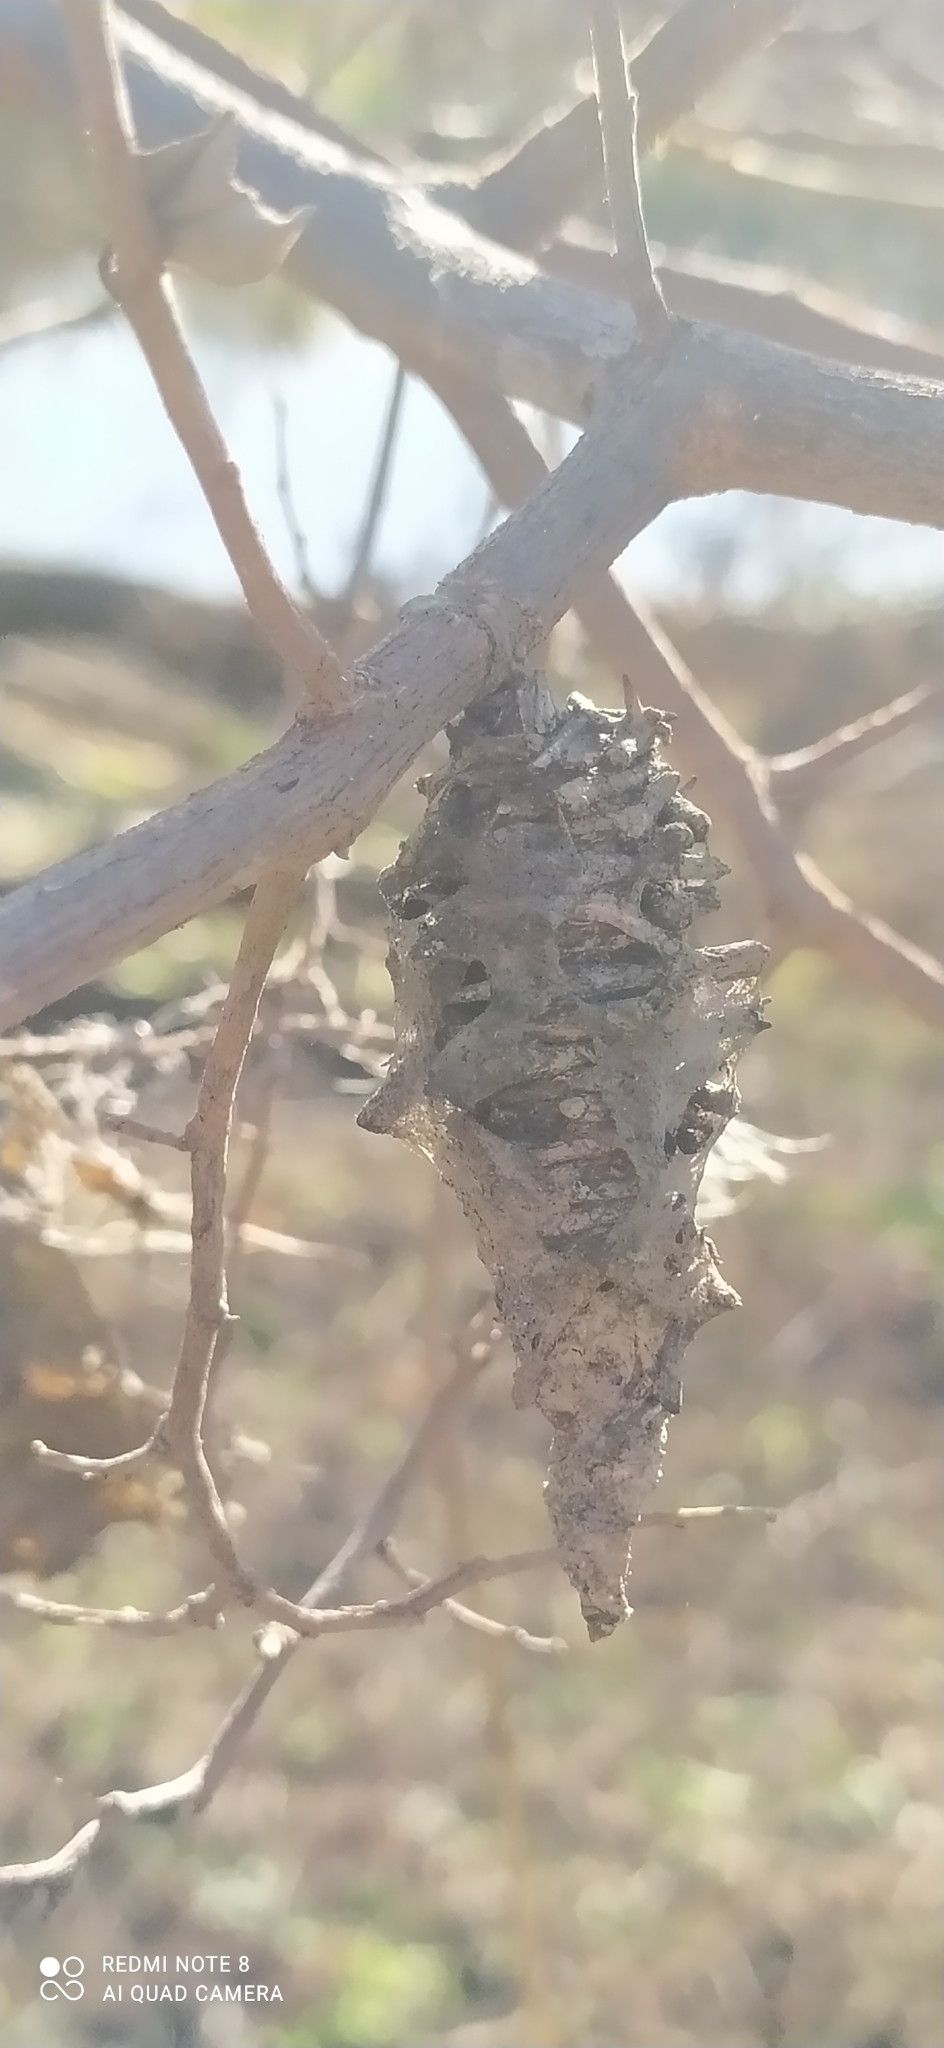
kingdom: Animalia
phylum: Arthropoda
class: Insecta
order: Lepidoptera
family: Psychidae
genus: Oiketicus
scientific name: Oiketicus
